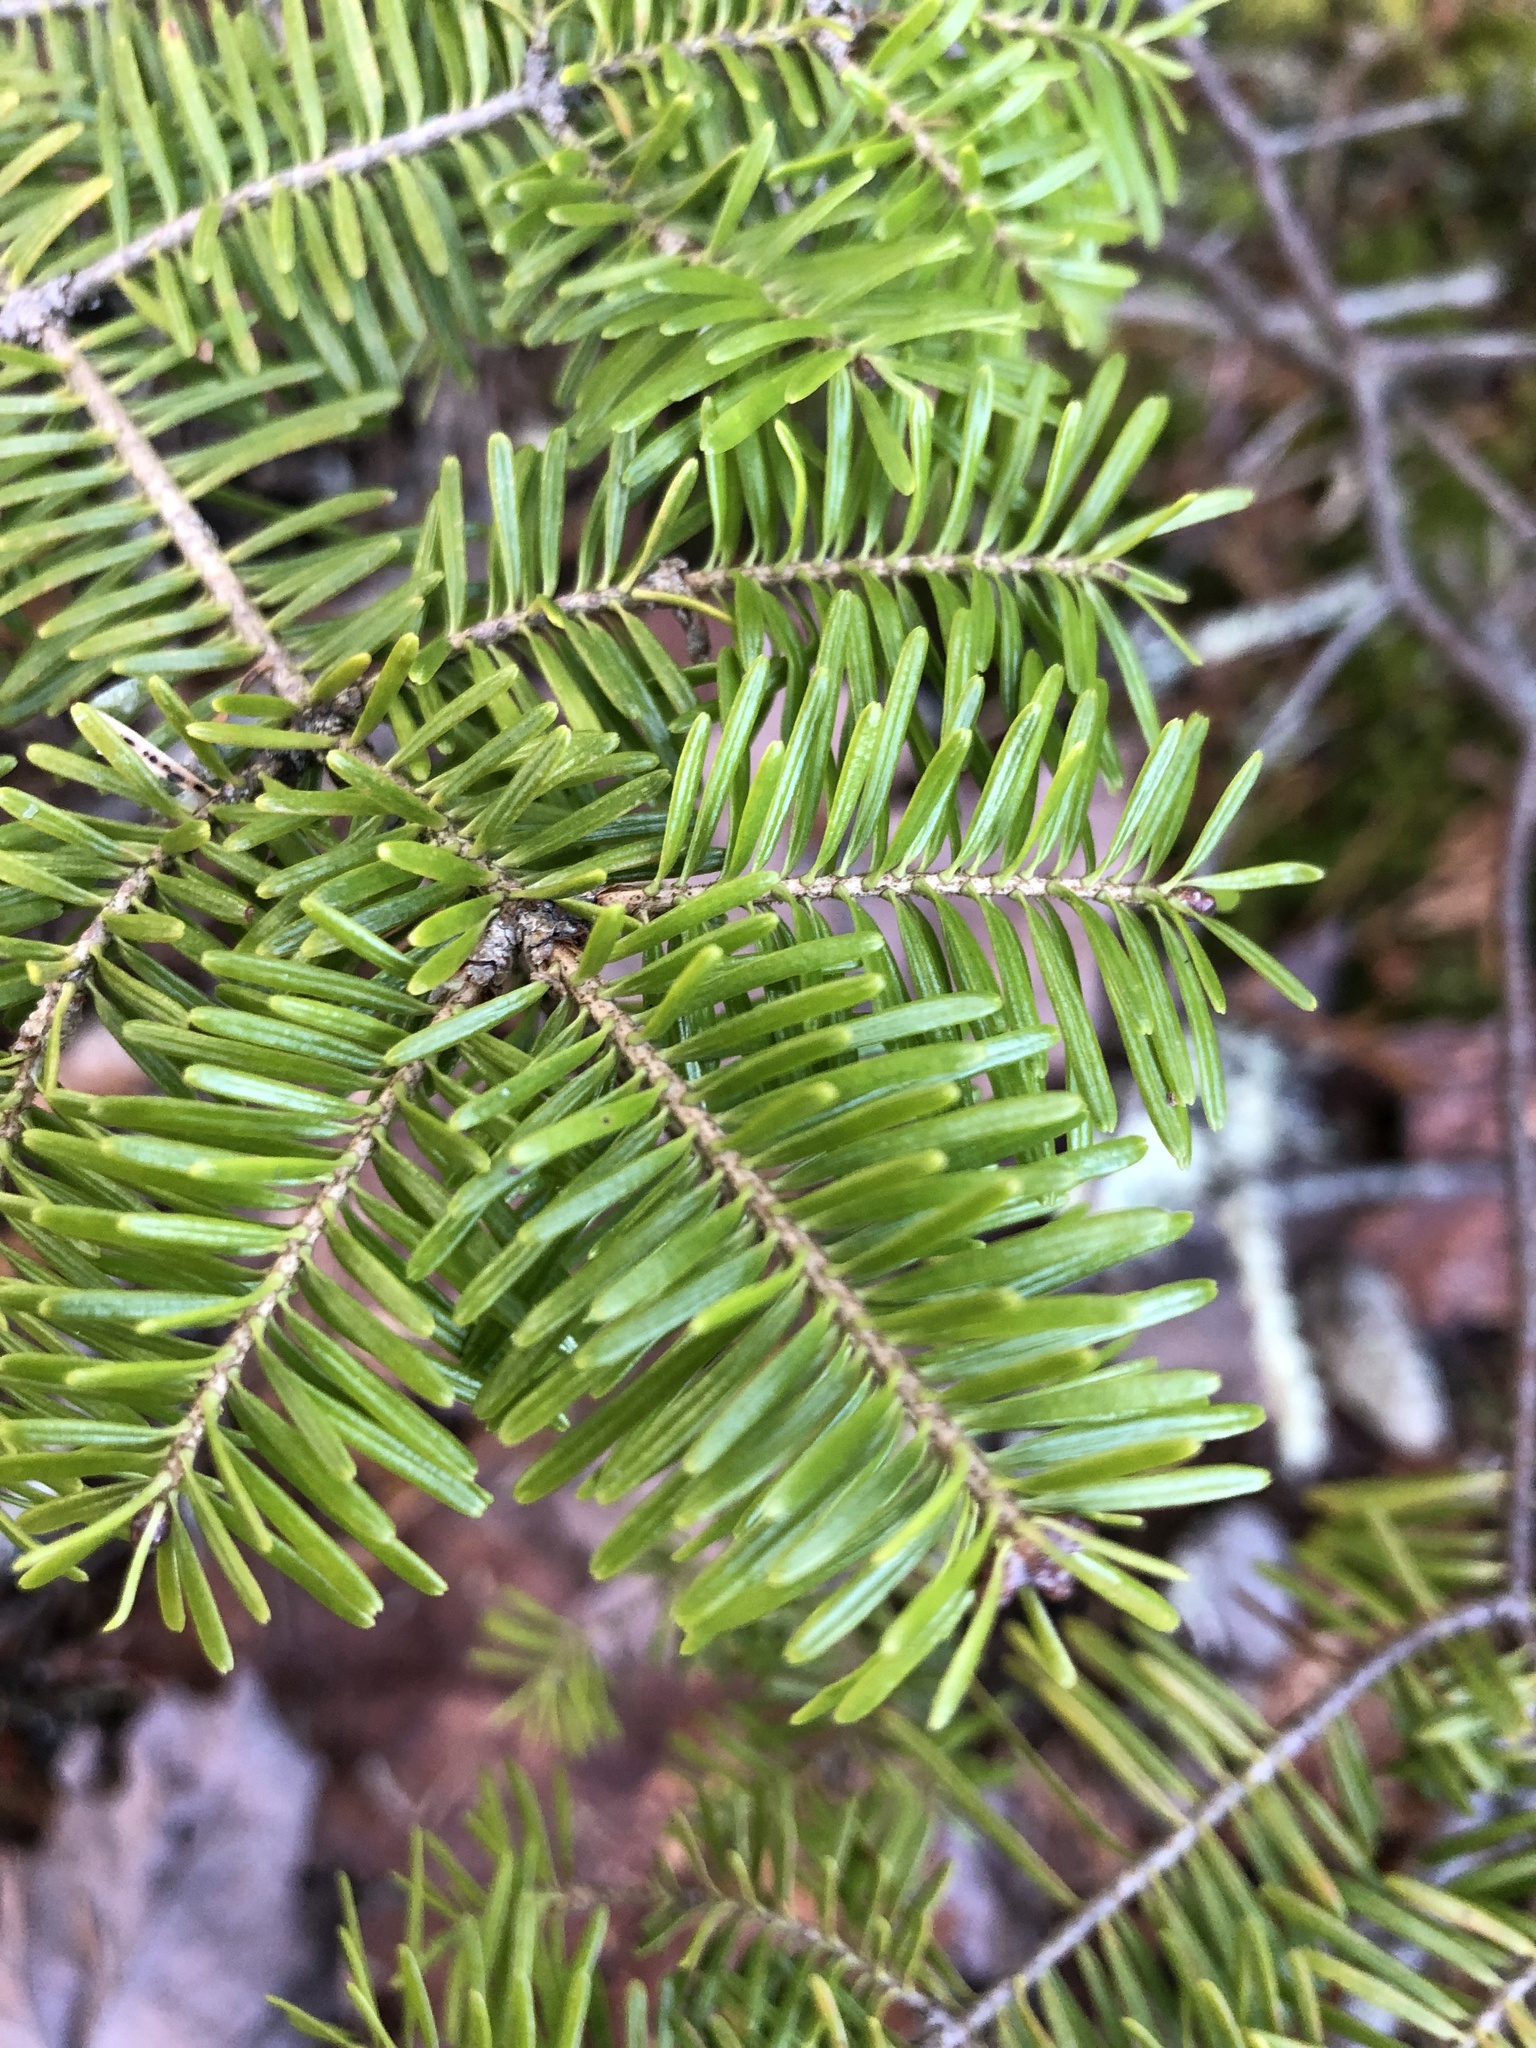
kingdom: Plantae
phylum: Tracheophyta
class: Pinopsida
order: Pinales
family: Pinaceae
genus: Abies
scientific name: Abies balsamea
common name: Balsam fir
